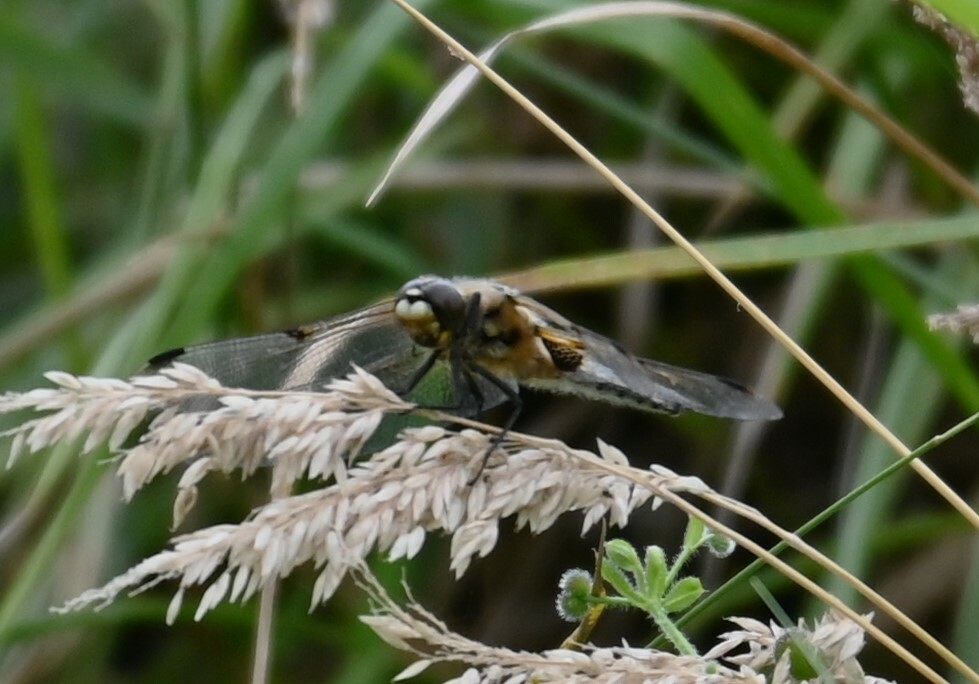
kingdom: Animalia
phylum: Arthropoda
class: Insecta
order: Odonata
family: Libellulidae
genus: Libellula
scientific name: Libellula quadrimaculata
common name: Four-spotted chaser
